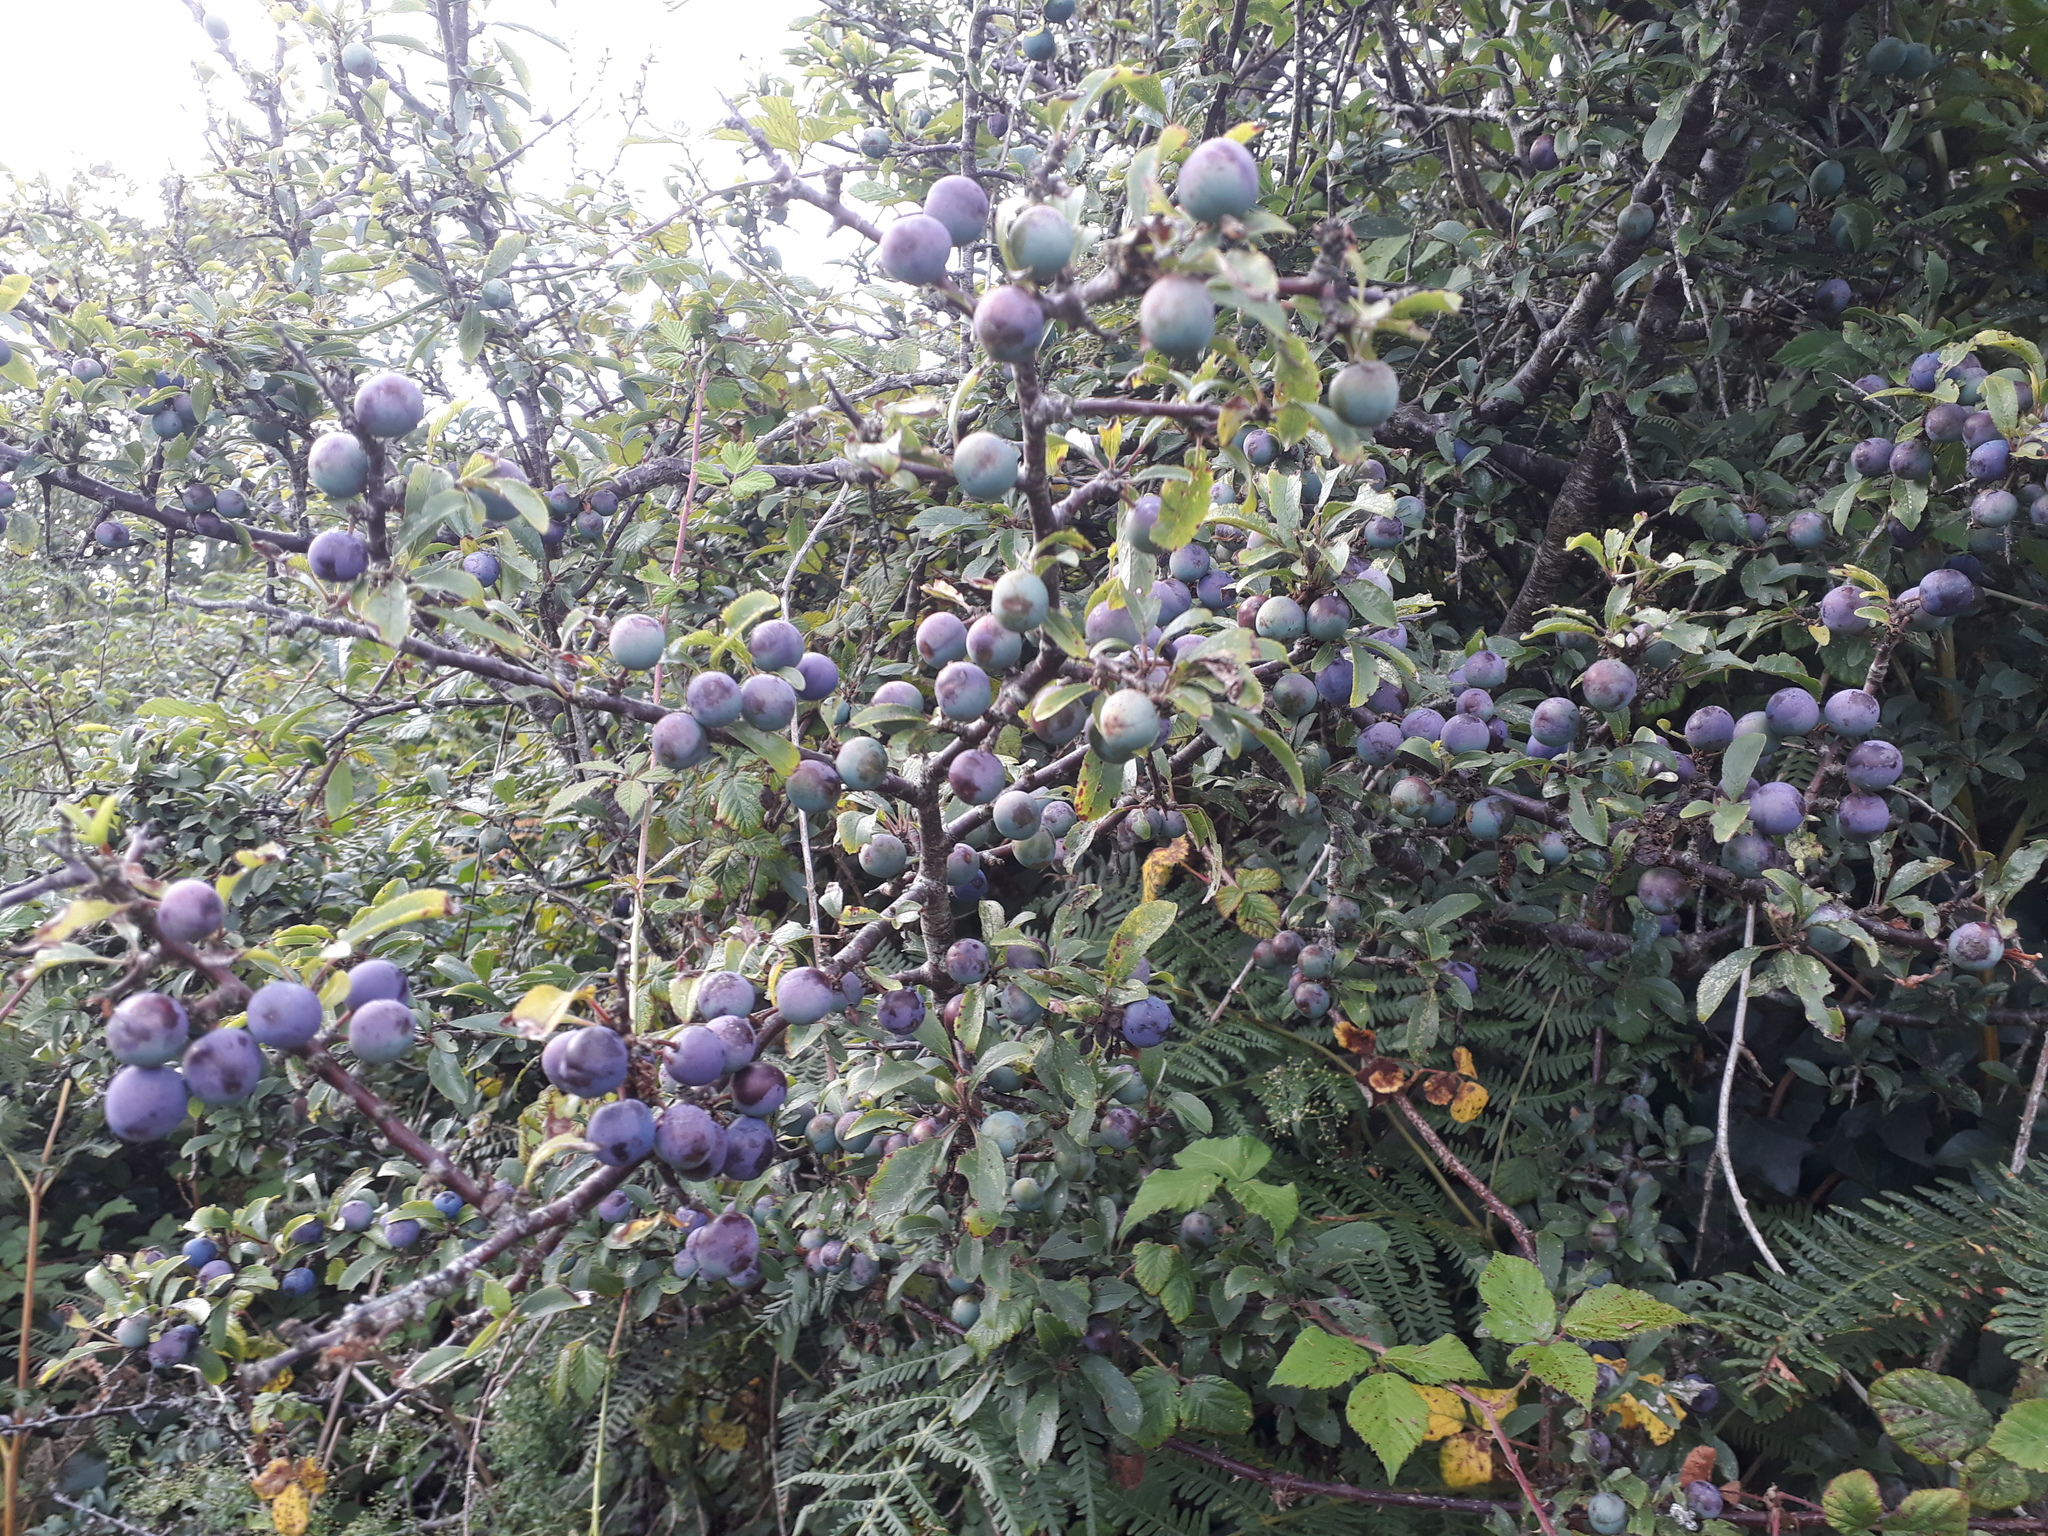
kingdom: Plantae
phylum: Tracheophyta
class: Magnoliopsida
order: Rosales
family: Rosaceae
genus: Prunus
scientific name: Prunus spinosa
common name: Blackthorn
